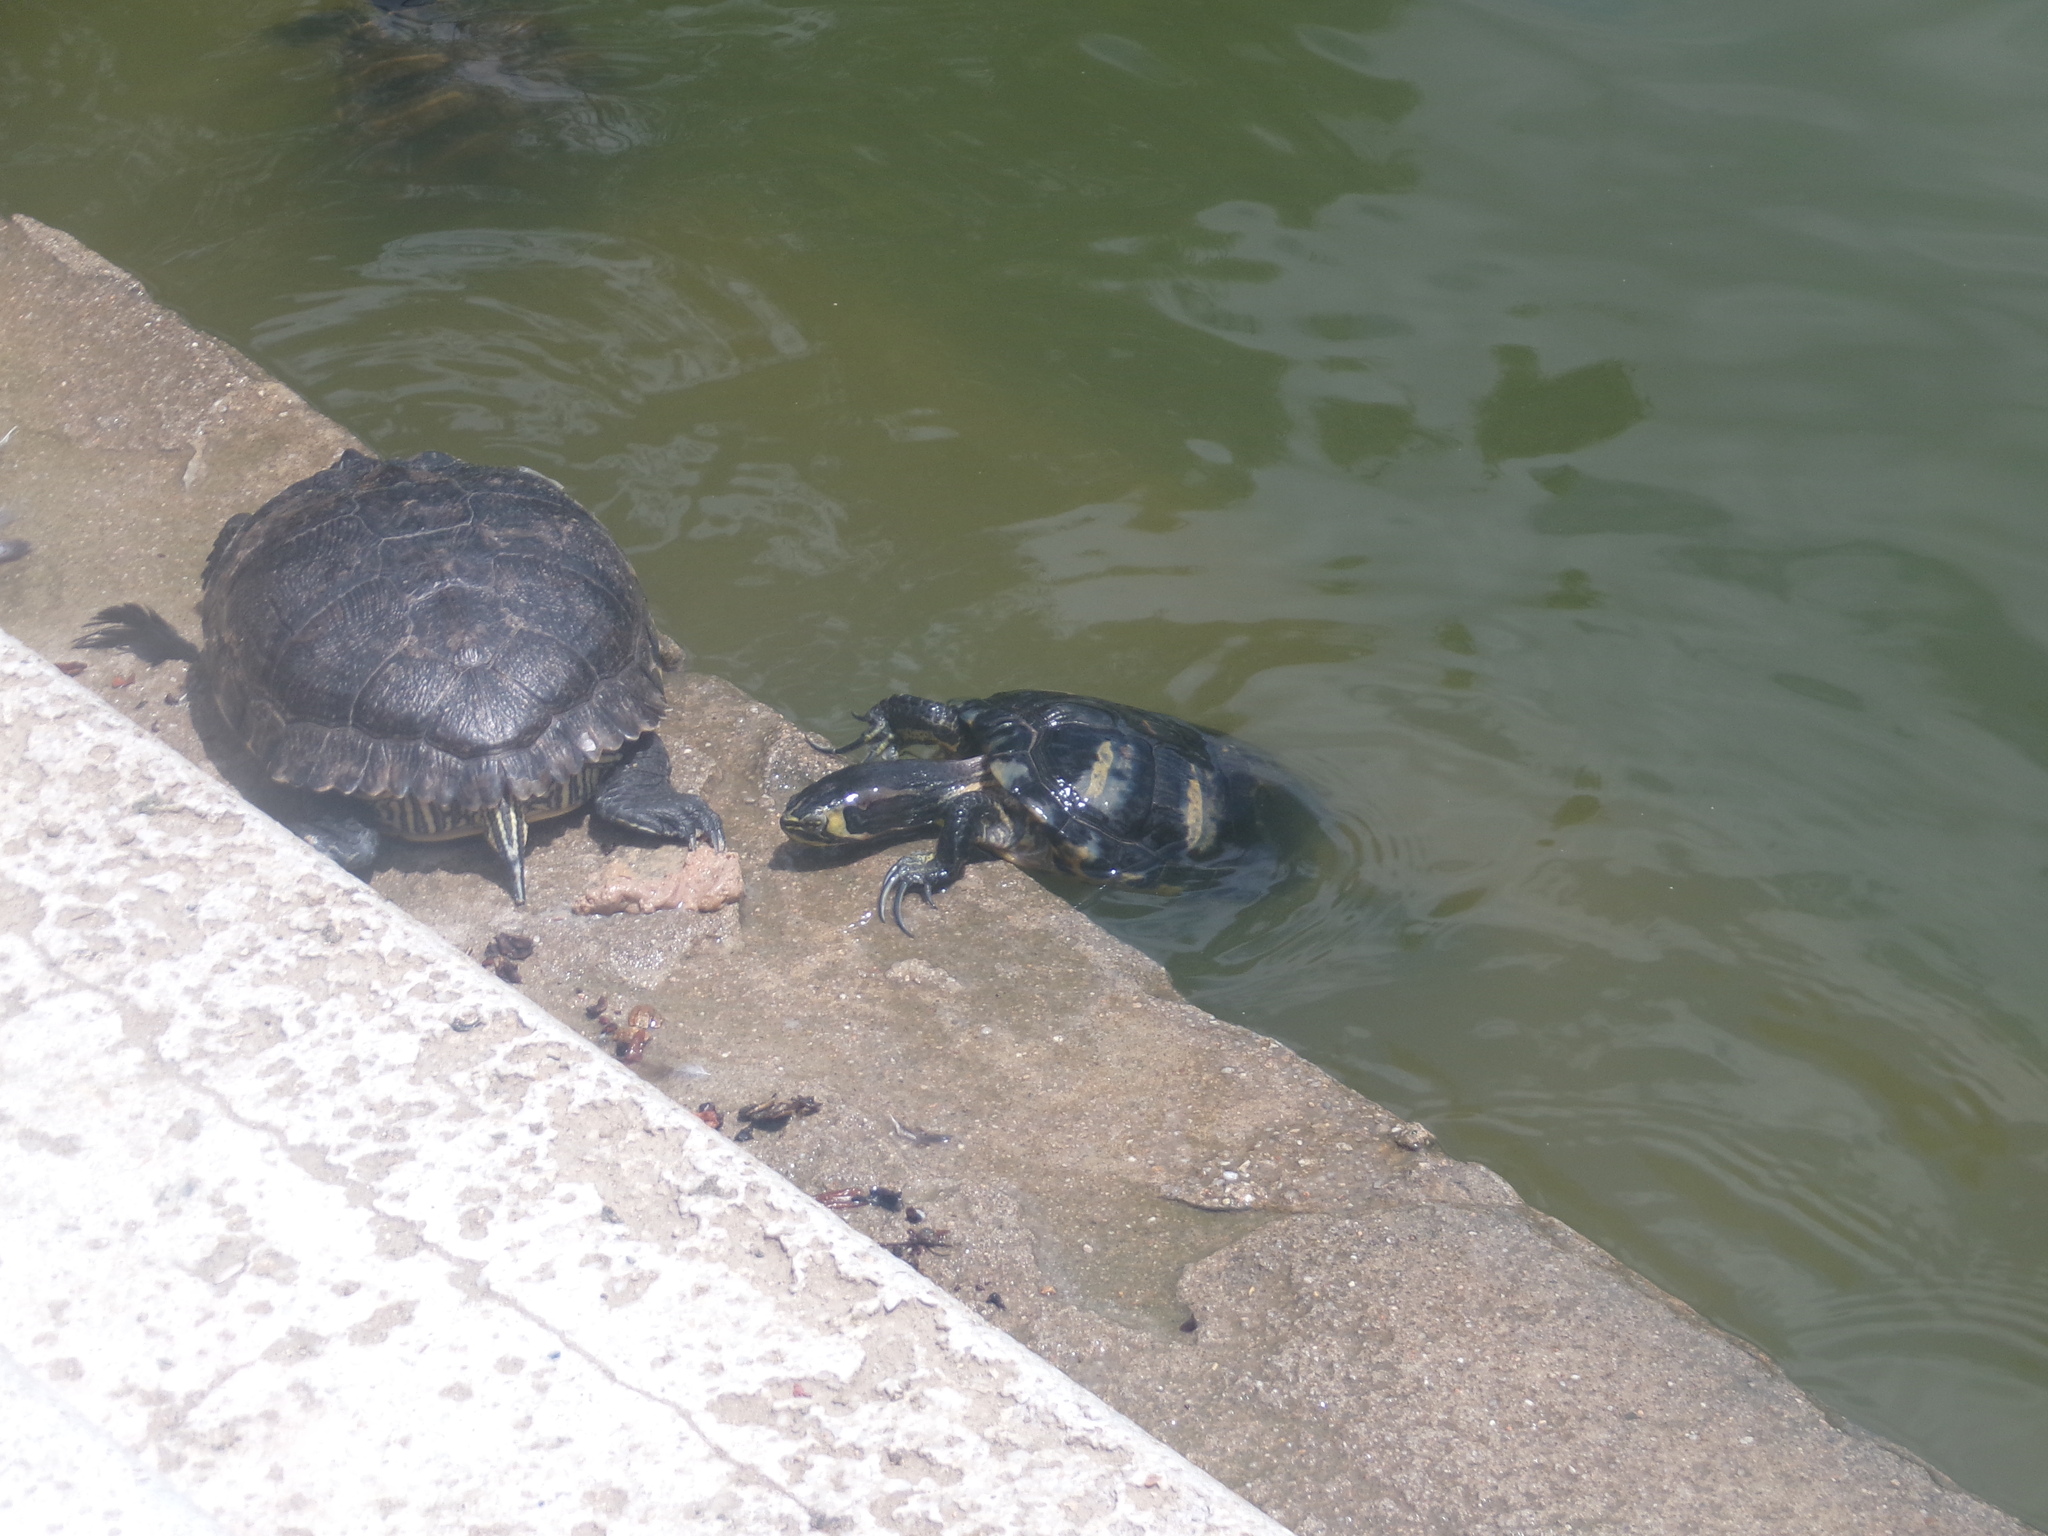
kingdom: Animalia
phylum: Chordata
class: Testudines
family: Emydidae
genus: Trachemys
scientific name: Trachemys scripta
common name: Slider
